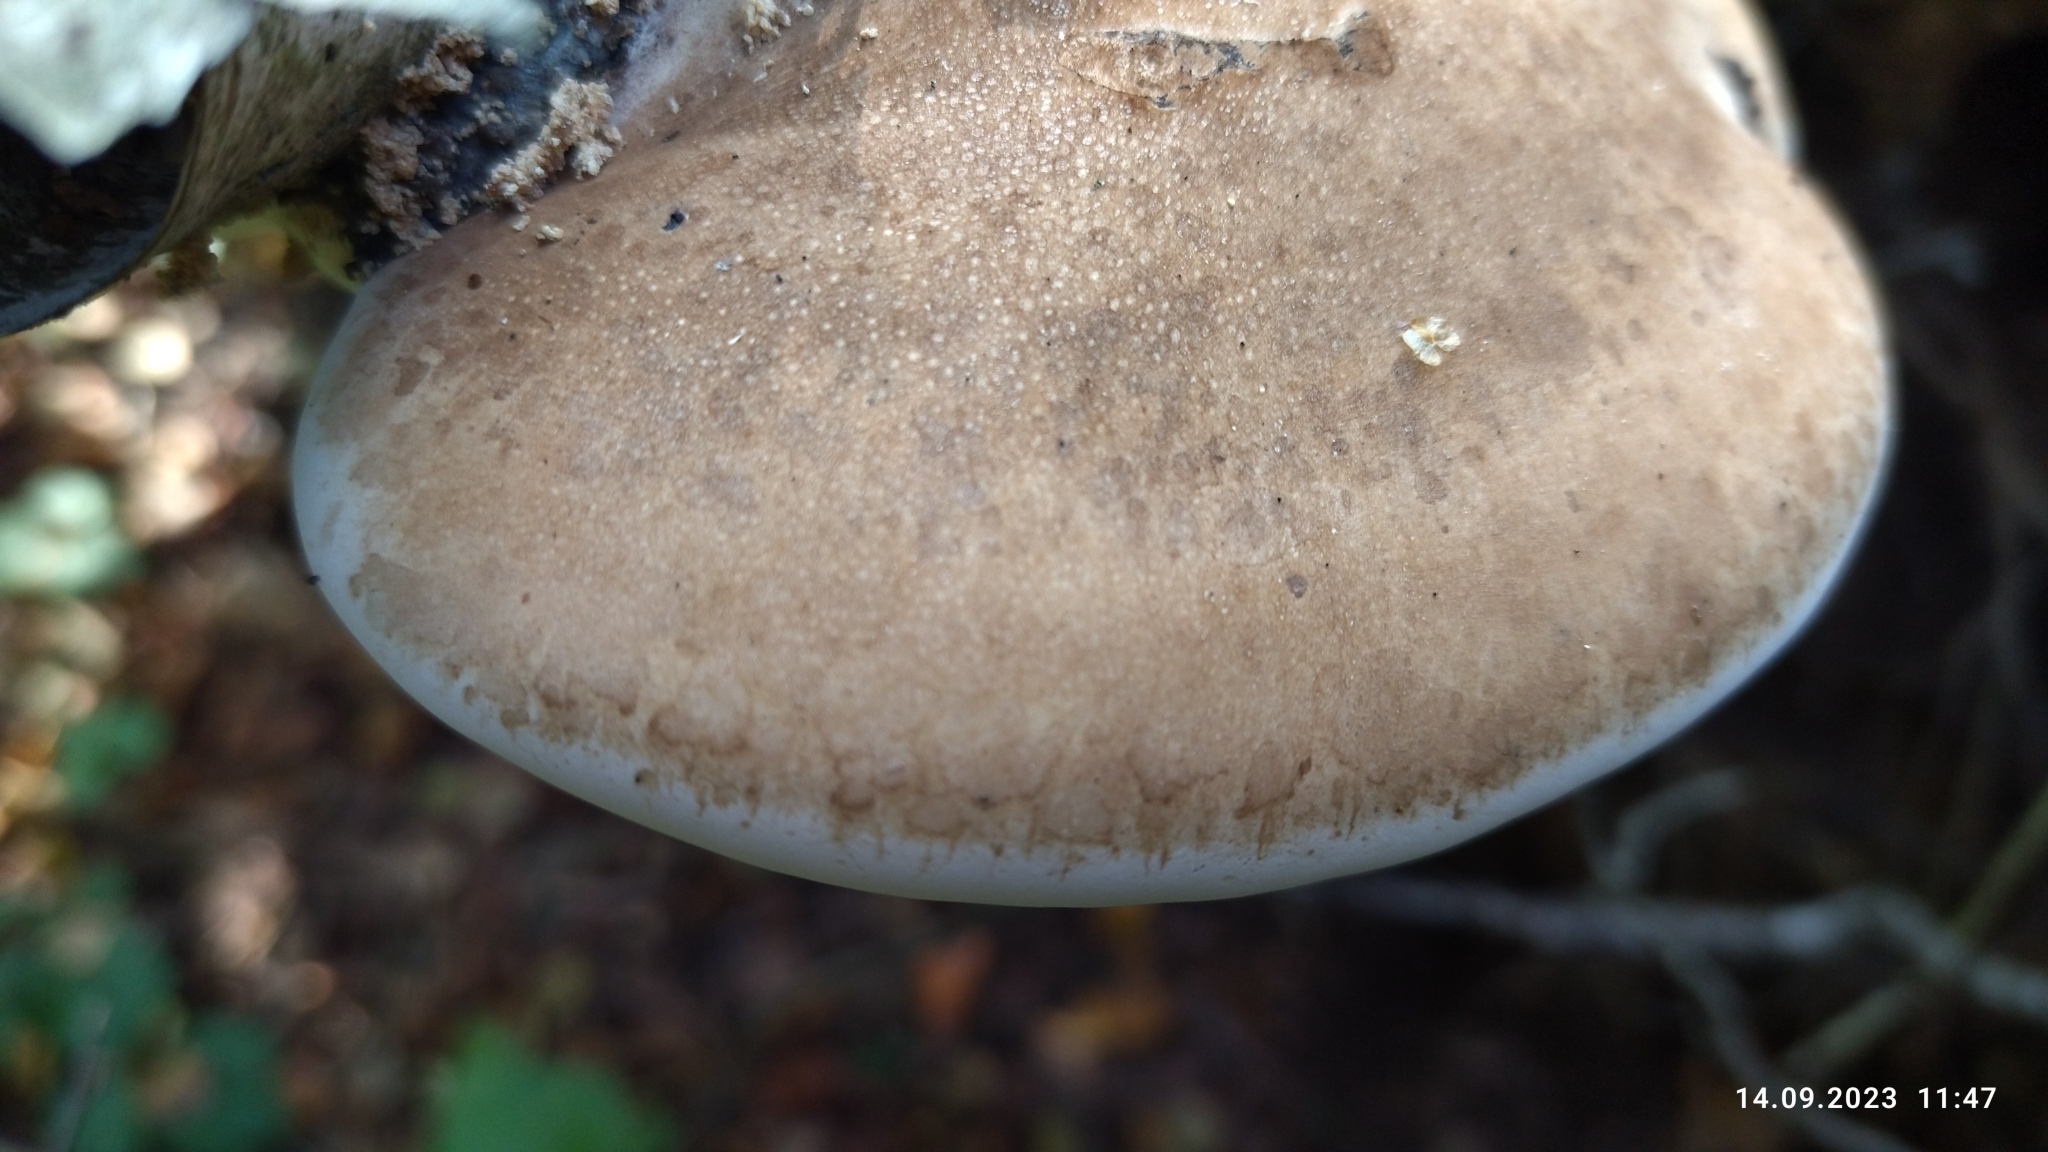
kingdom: Fungi
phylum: Basidiomycota
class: Agaricomycetes
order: Polyporales
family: Fomitopsidaceae
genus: Fomitopsis
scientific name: Fomitopsis betulina
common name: Birch polypore
